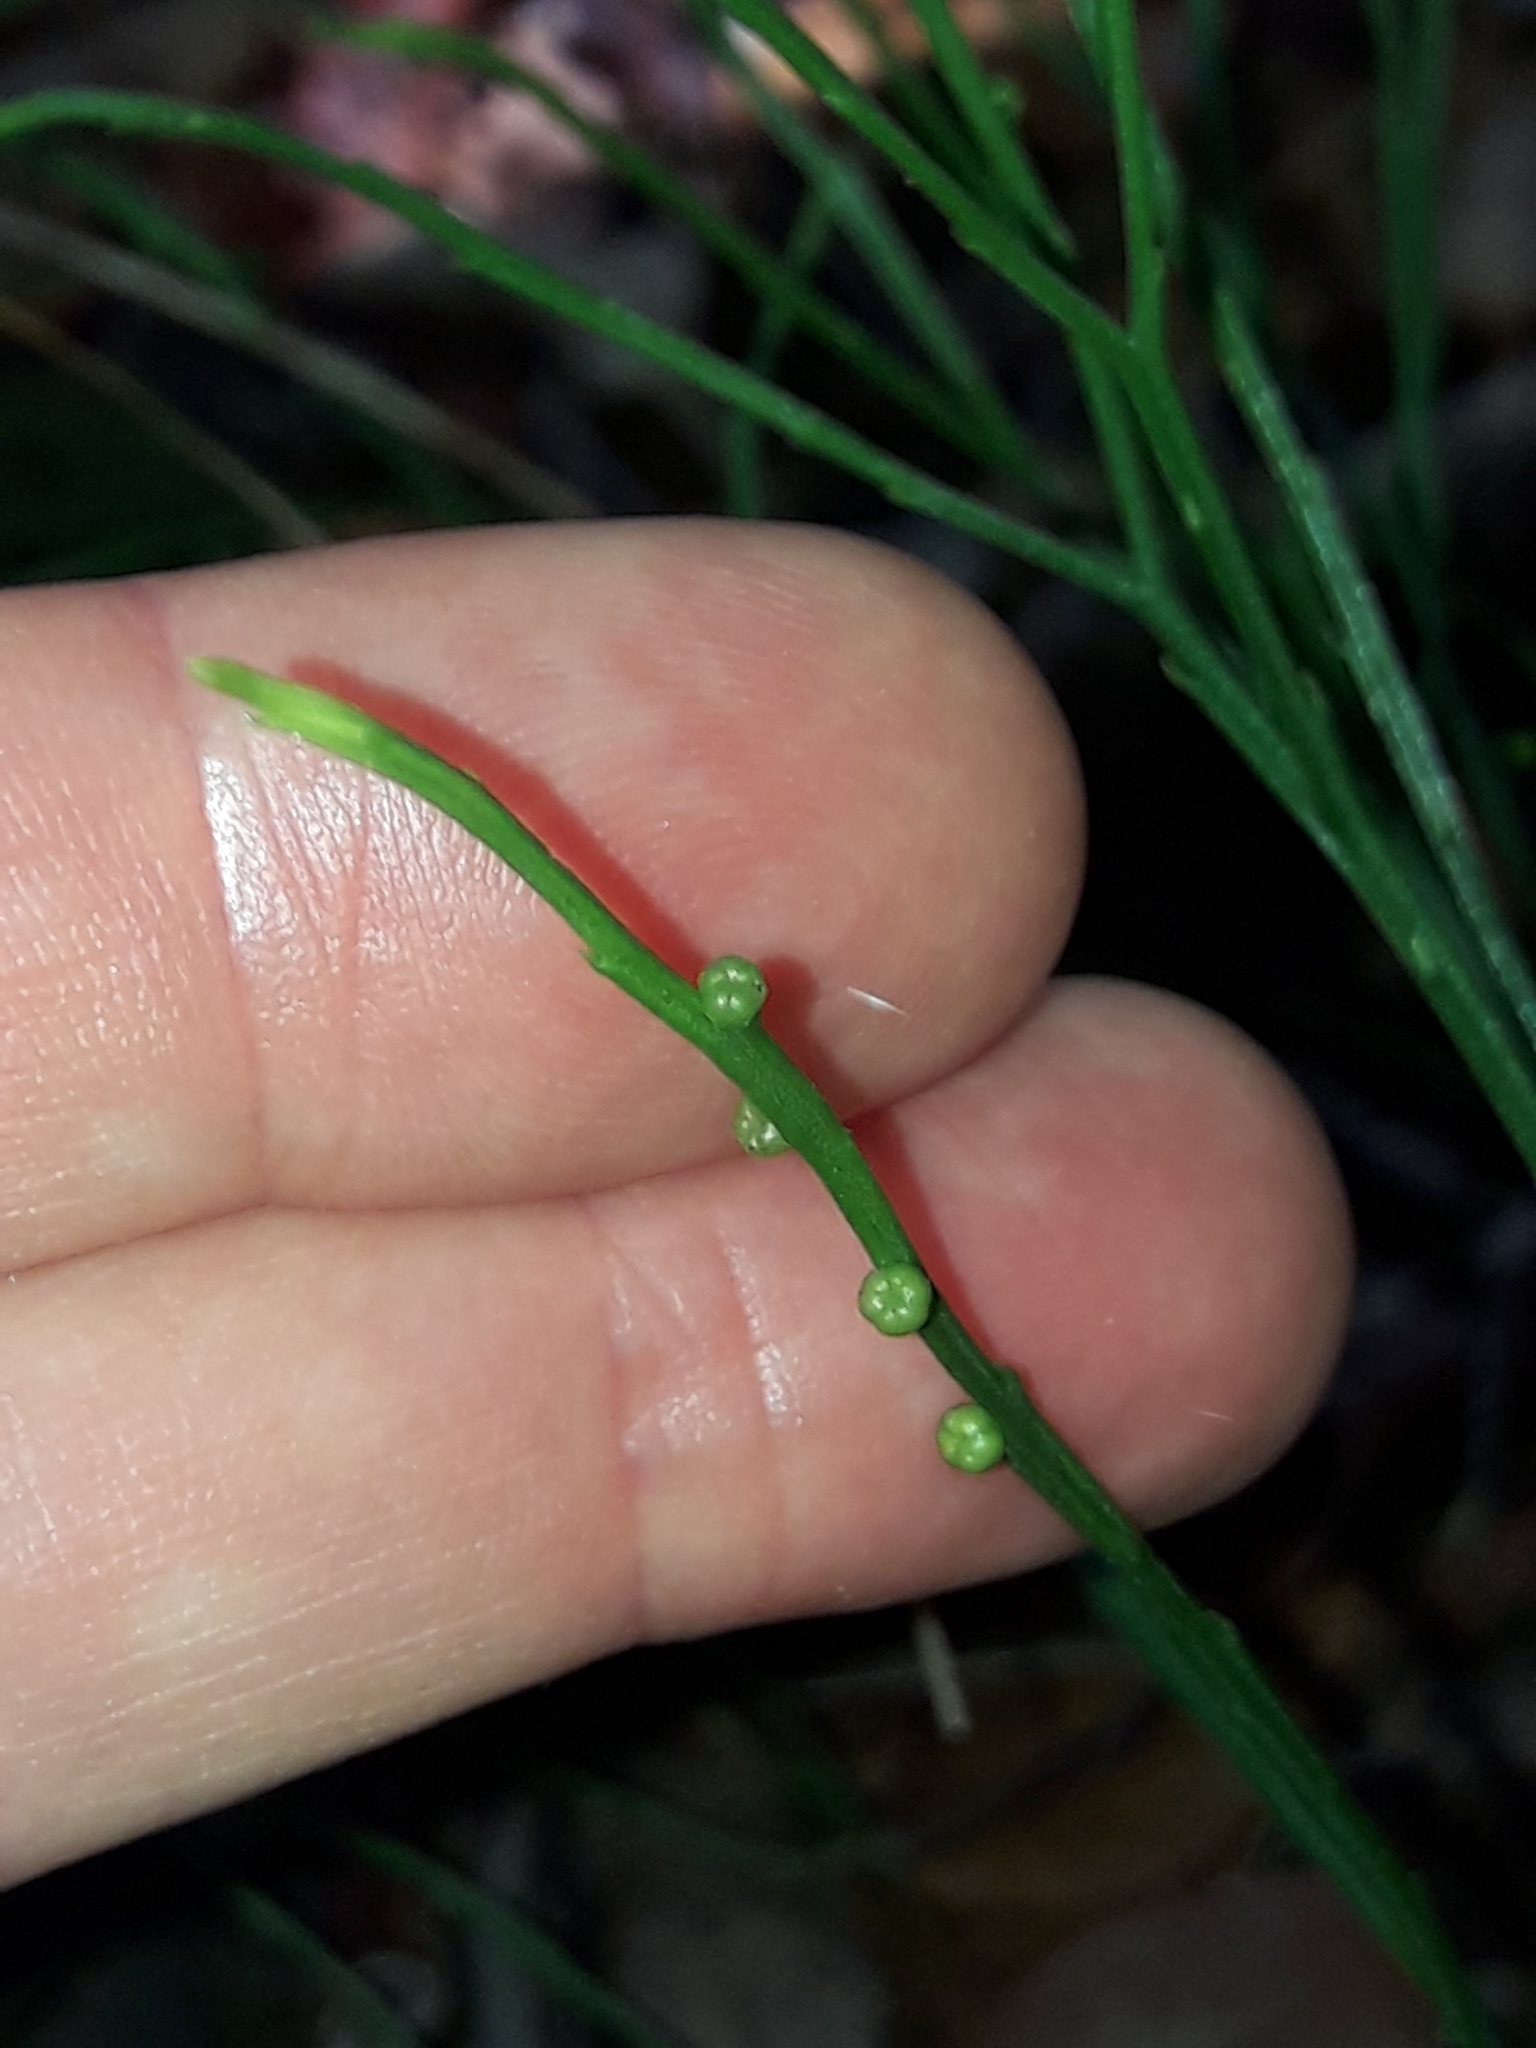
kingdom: Plantae
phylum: Tracheophyta
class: Polypodiopsida
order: Psilotales
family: Psilotaceae
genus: Psilotum
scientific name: Psilotum nudum
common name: Skeleton fork fern
